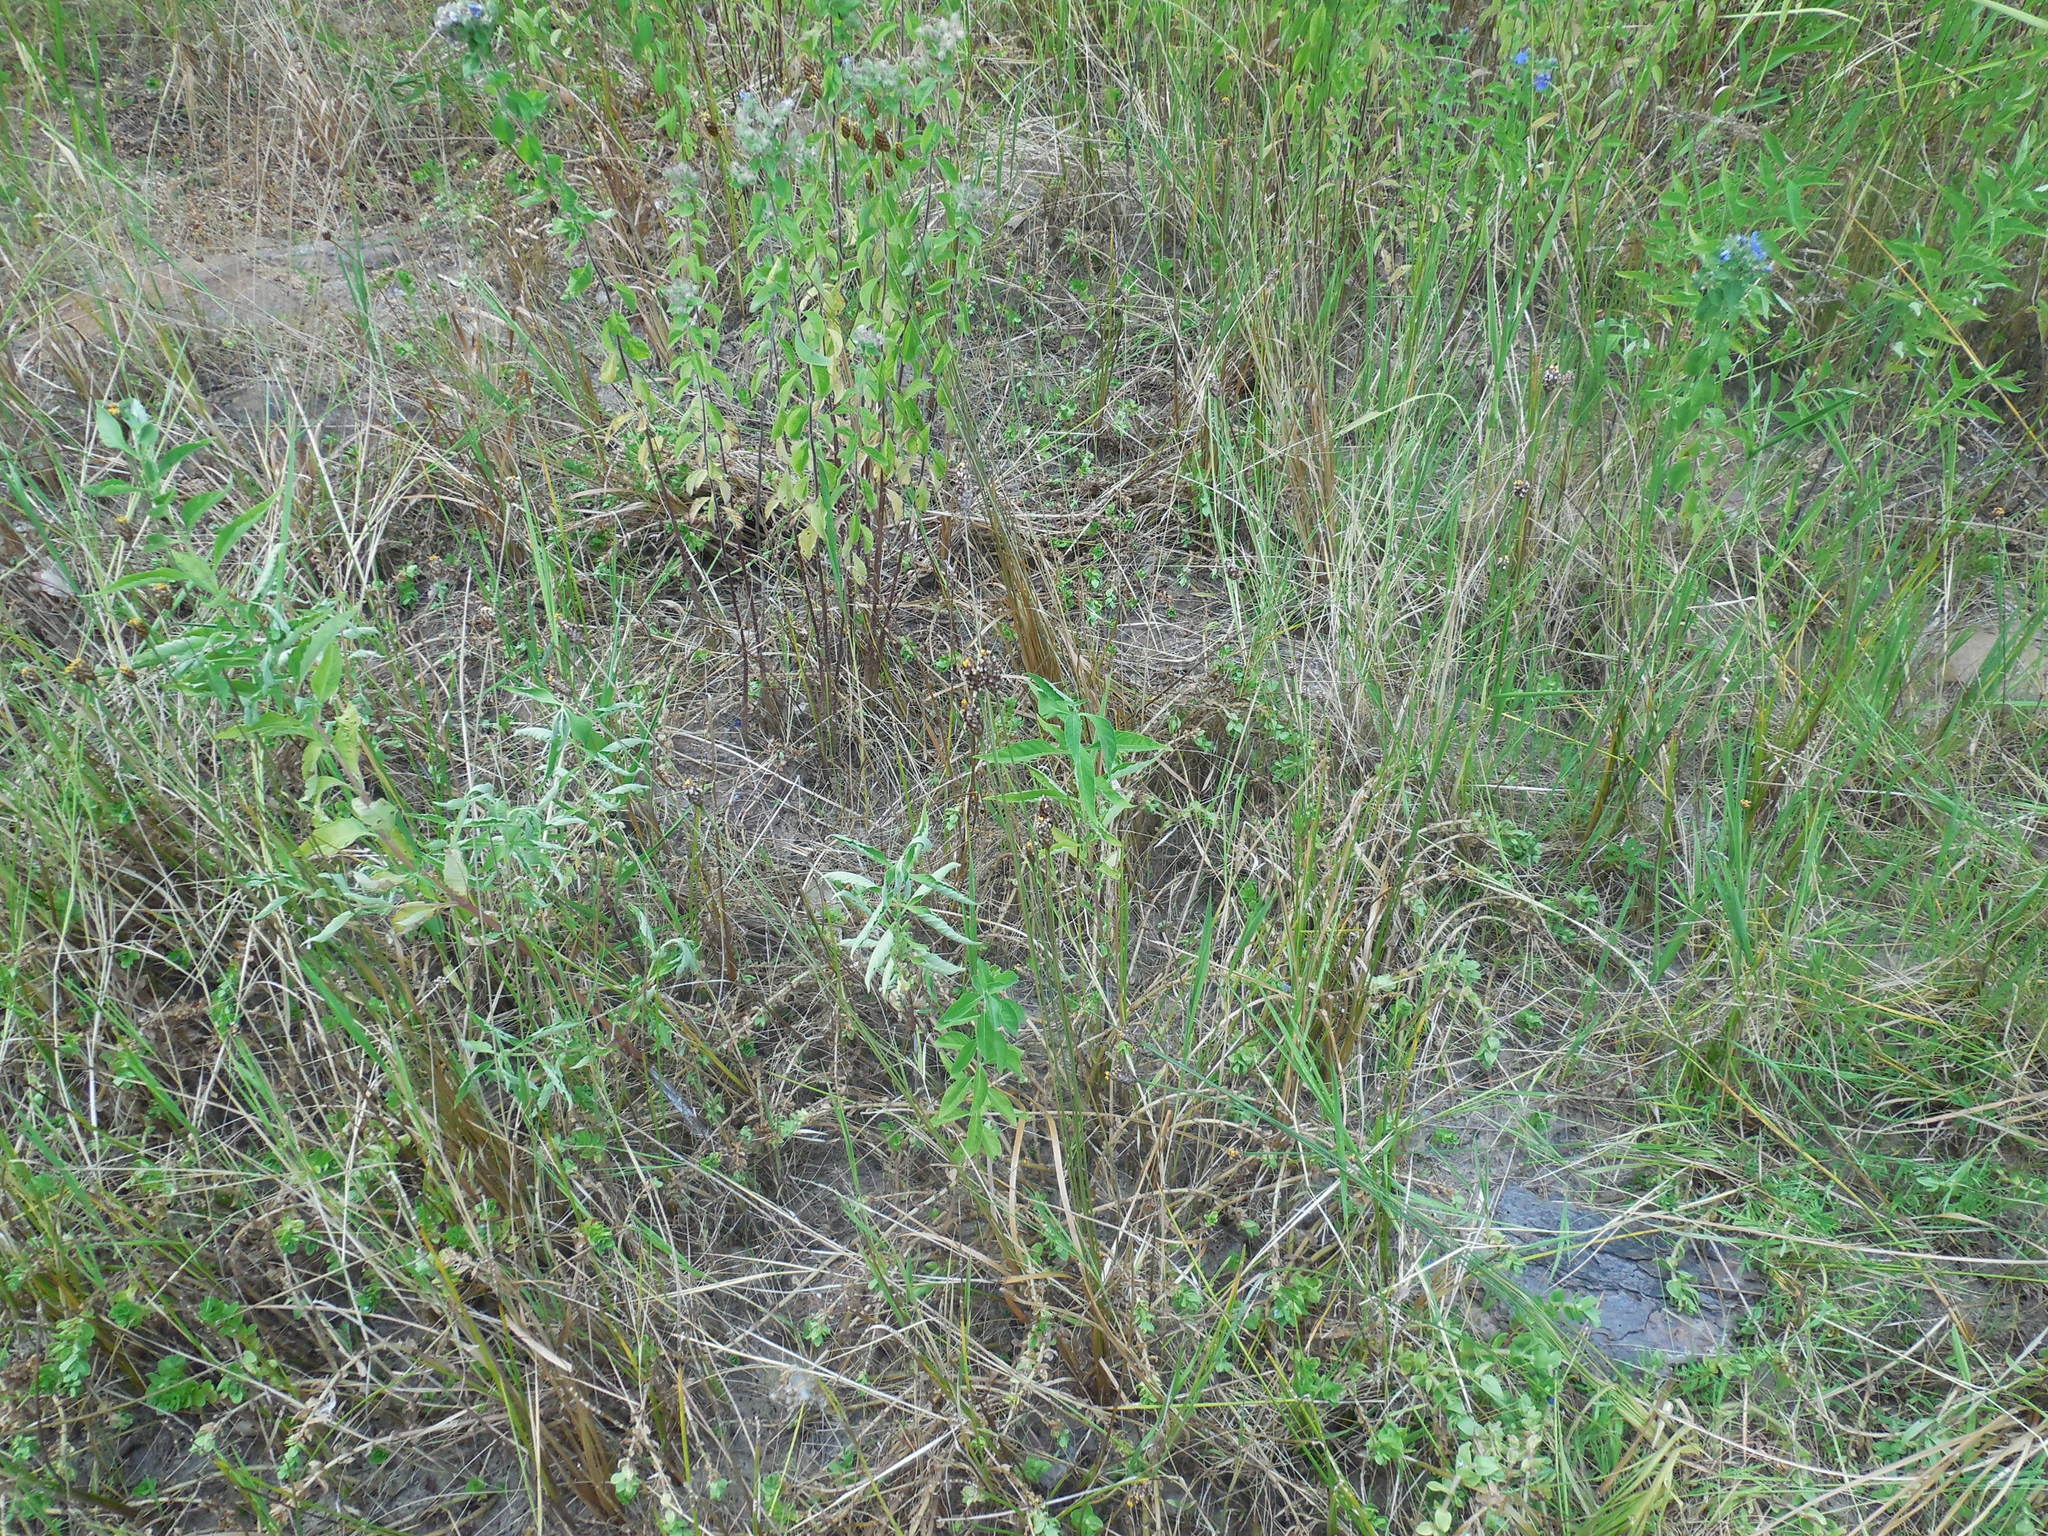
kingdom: Plantae
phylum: Tracheophyta
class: Liliopsida
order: Poales
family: Xyridaceae
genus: Xyris
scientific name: Xyris jupicai
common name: Richard's yelloweyed grass
